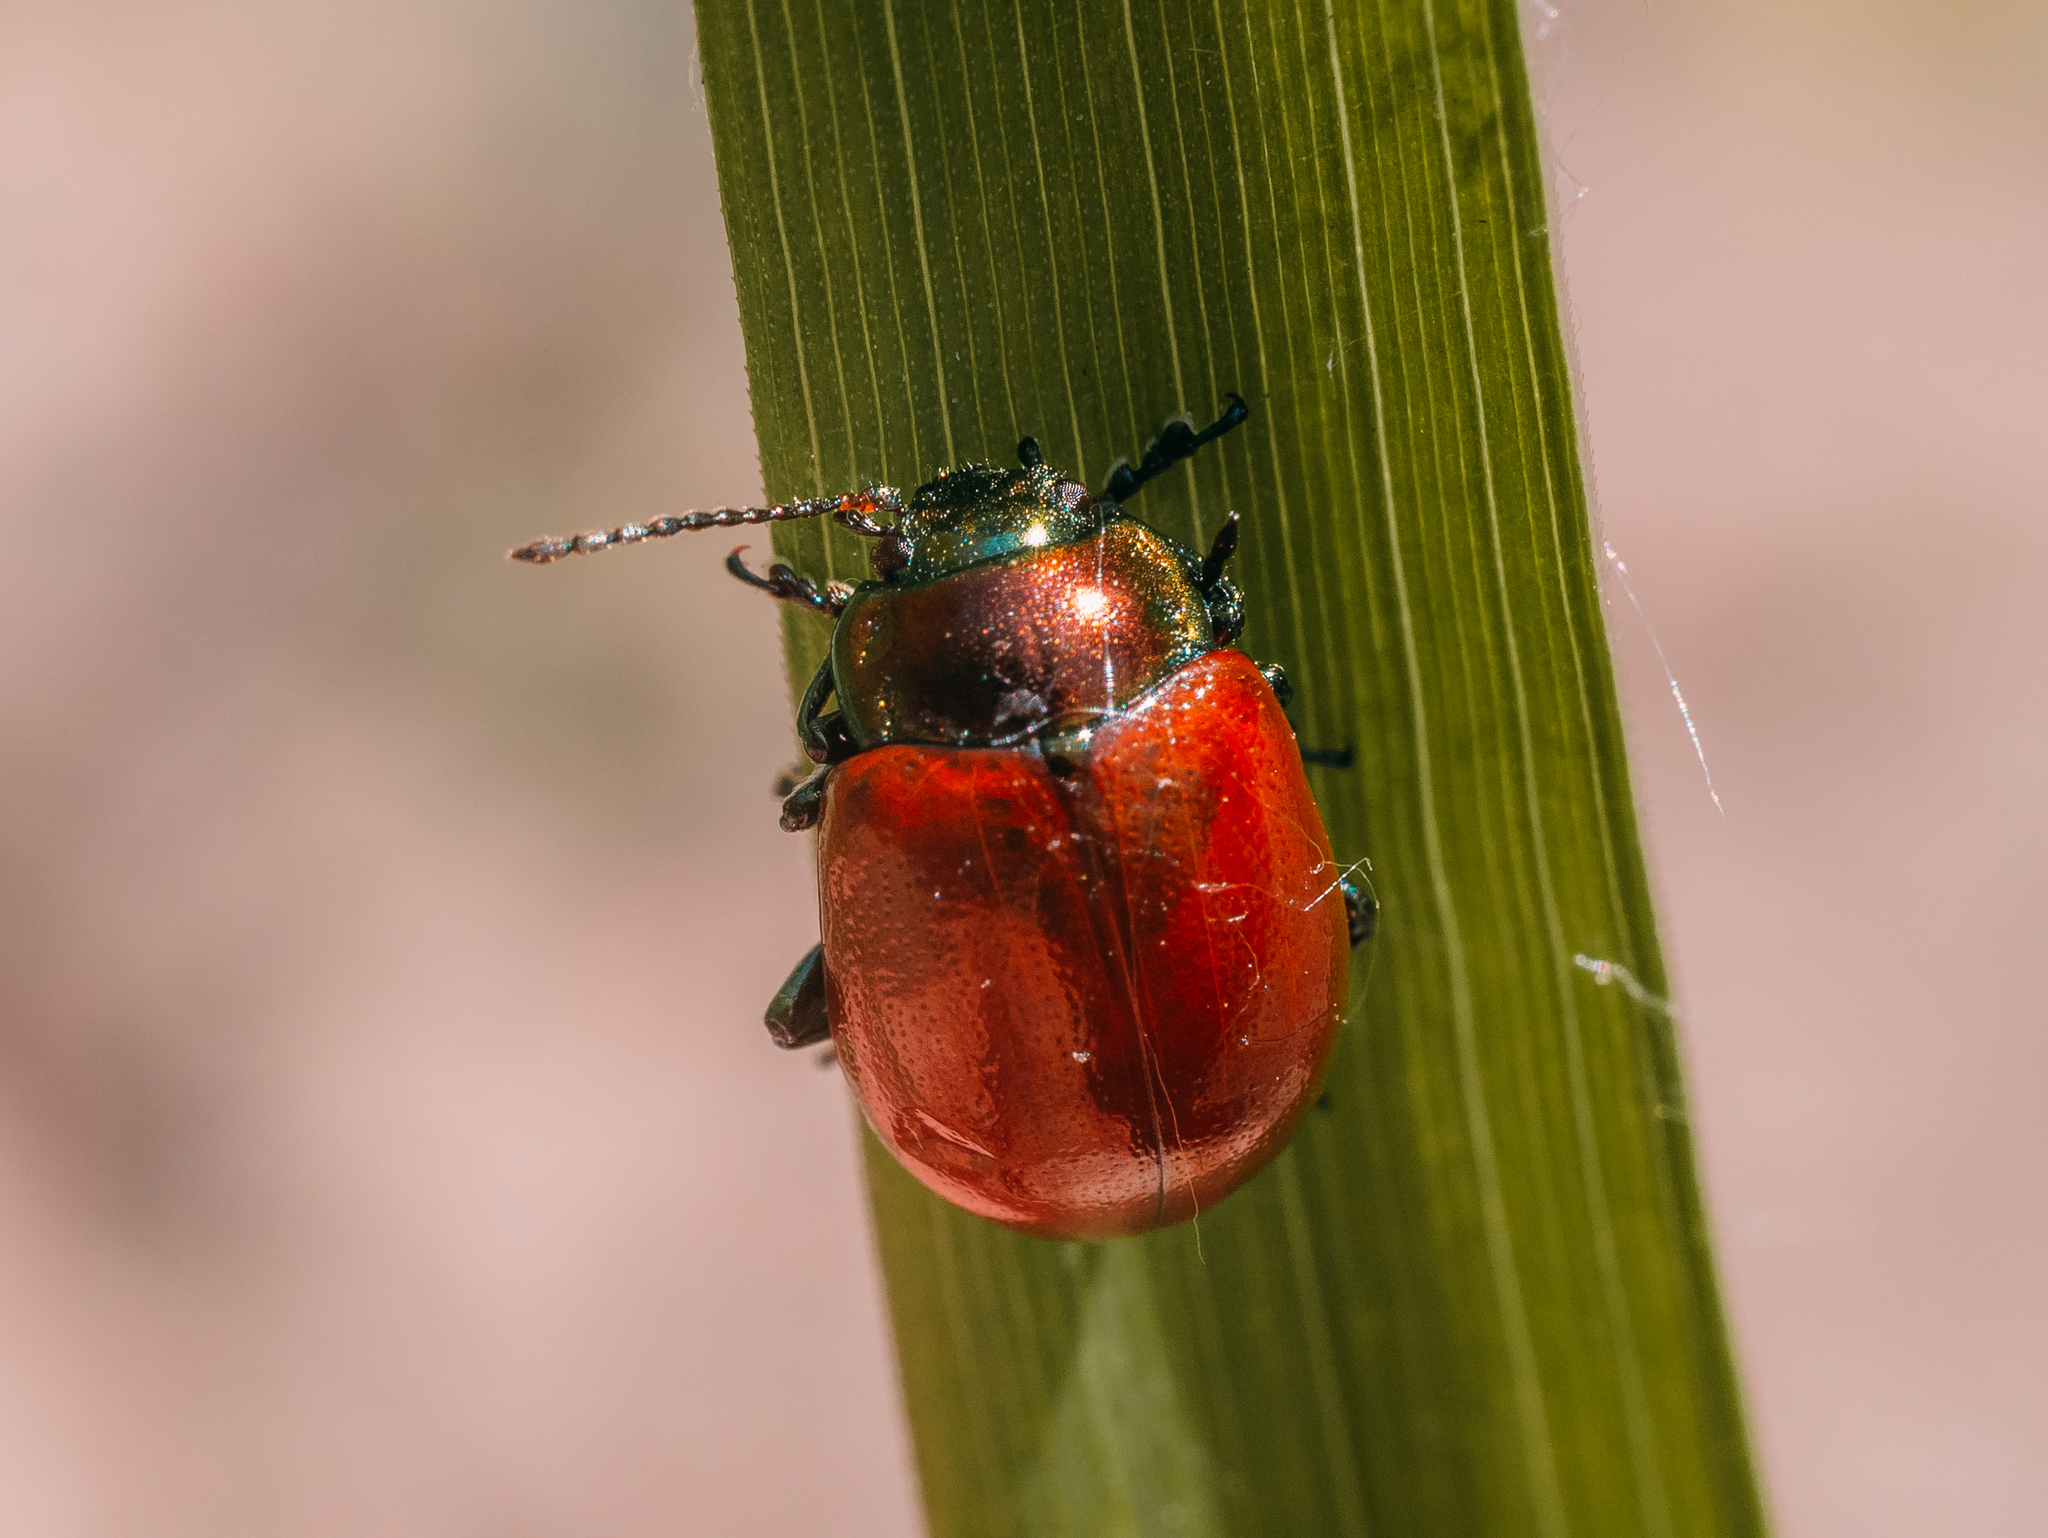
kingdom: Animalia
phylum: Arthropoda
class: Insecta
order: Coleoptera
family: Chrysomelidae
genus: Chrysomela
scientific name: Chrysomela polita
